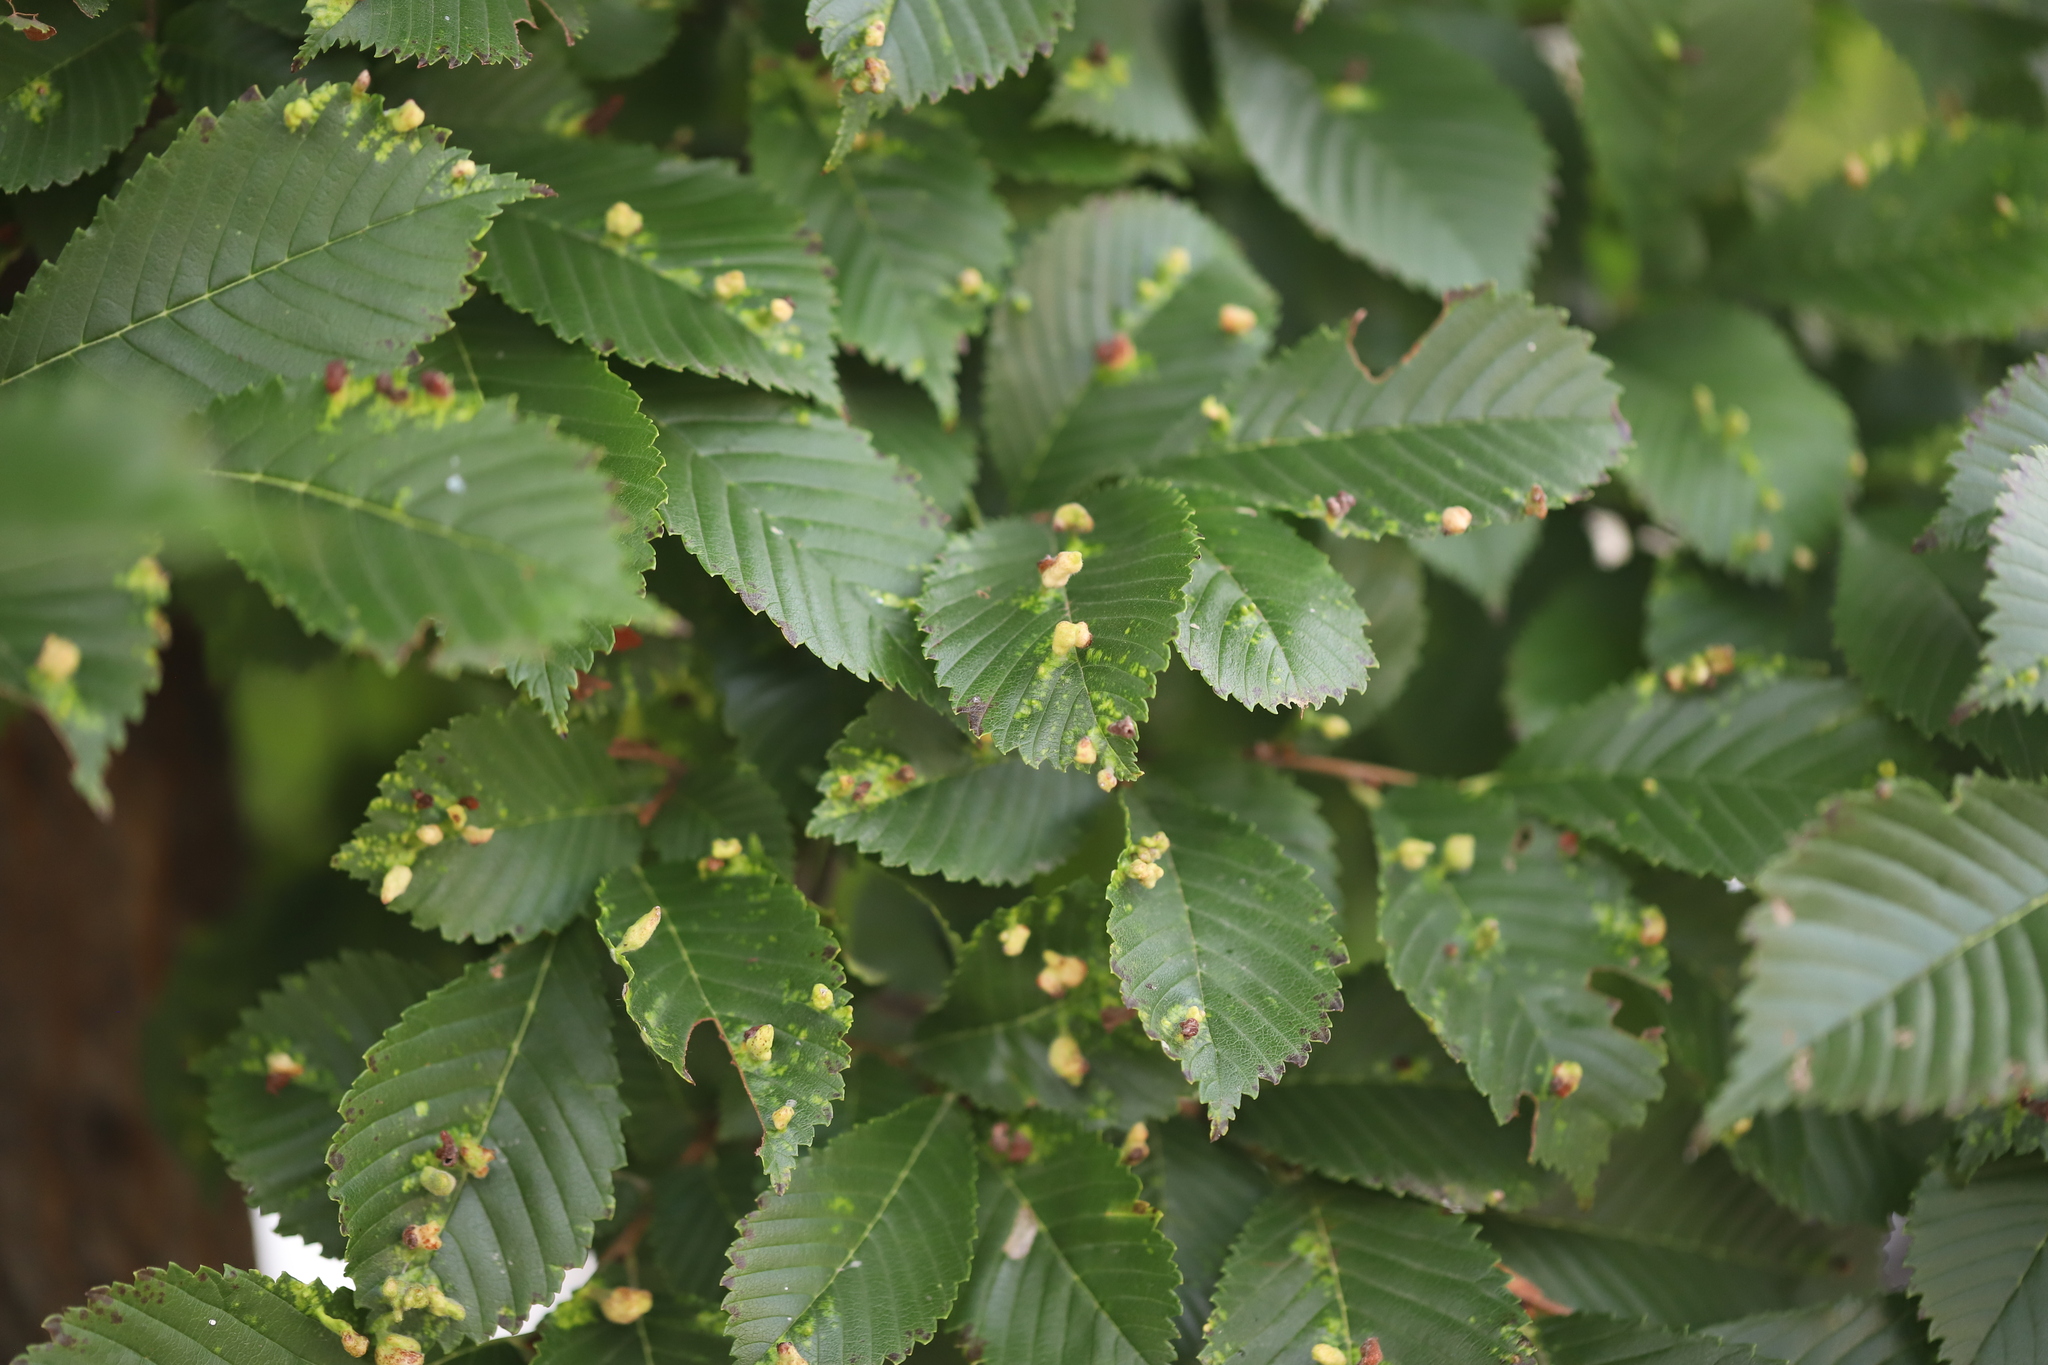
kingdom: Animalia
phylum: Arthropoda
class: Insecta
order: Hemiptera
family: Aphididae
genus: Tetraneura
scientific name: Tetraneura nigriabdominalis
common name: Aphid
